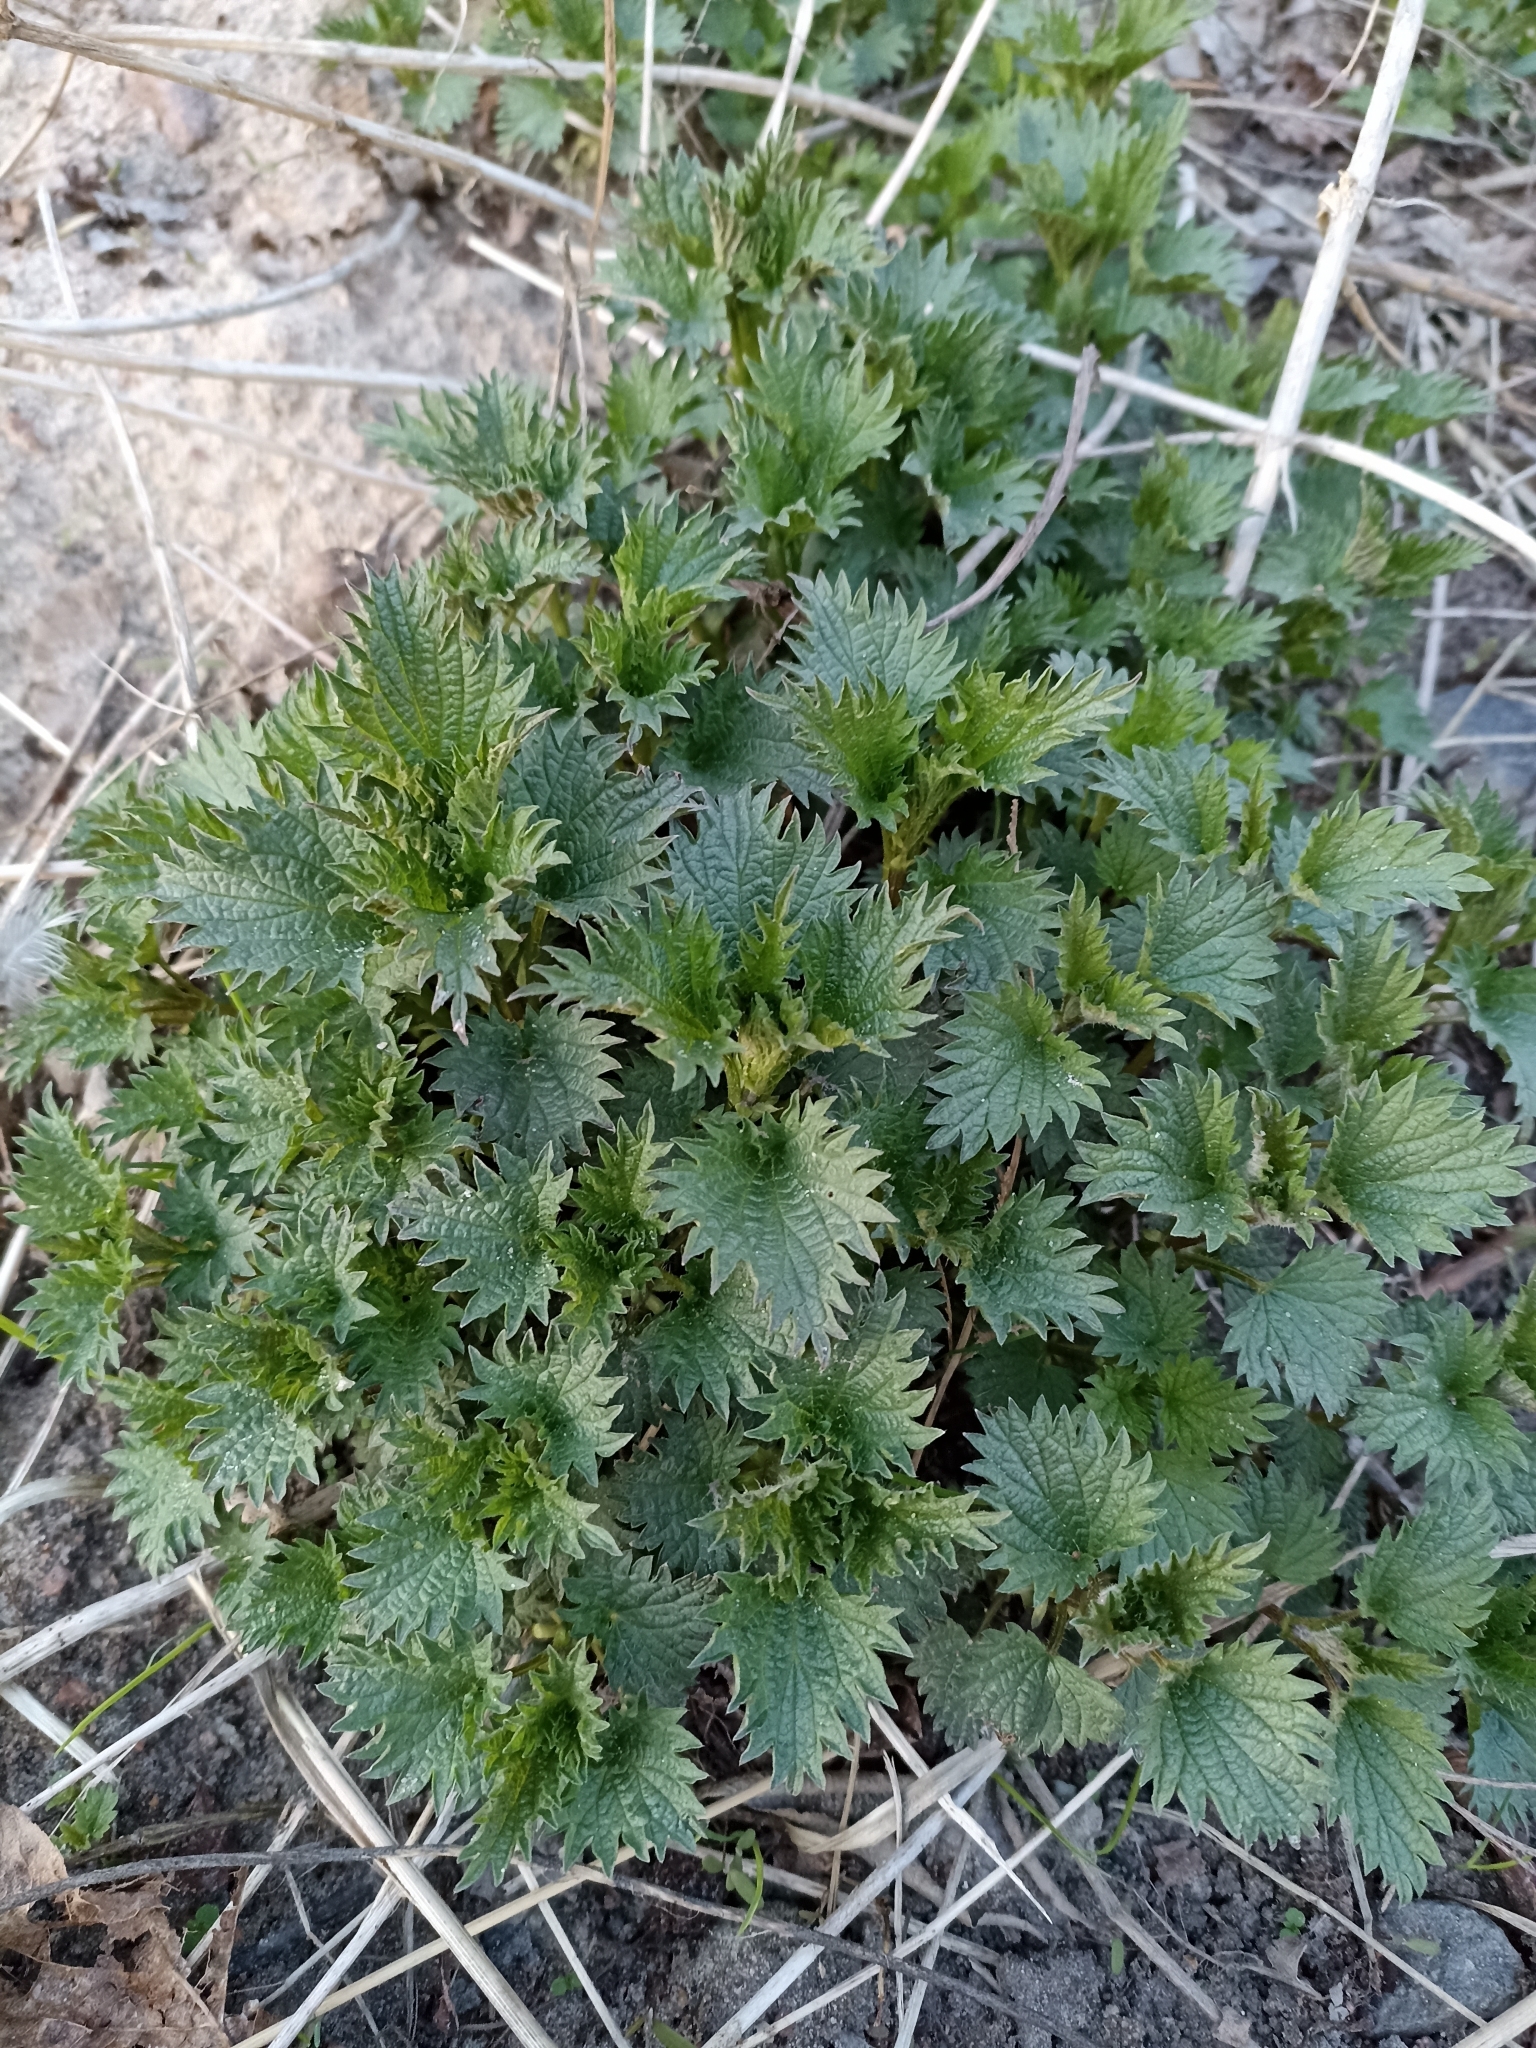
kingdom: Plantae
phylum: Tracheophyta
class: Magnoliopsida
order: Rosales
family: Urticaceae
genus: Urtica
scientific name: Urtica dioica
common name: Common nettle
